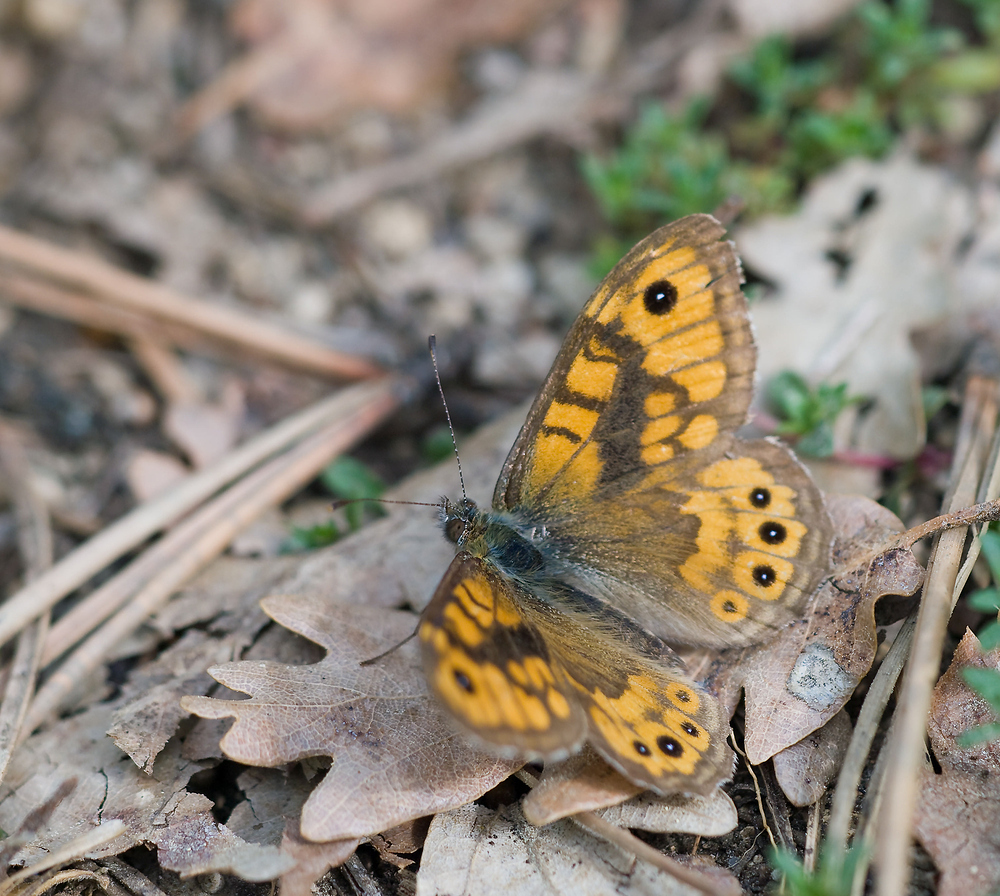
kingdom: Animalia
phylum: Arthropoda
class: Insecta
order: Lepidoptera
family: Nymphalidae
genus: Pararge
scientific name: Pararge Lasiommata megera
